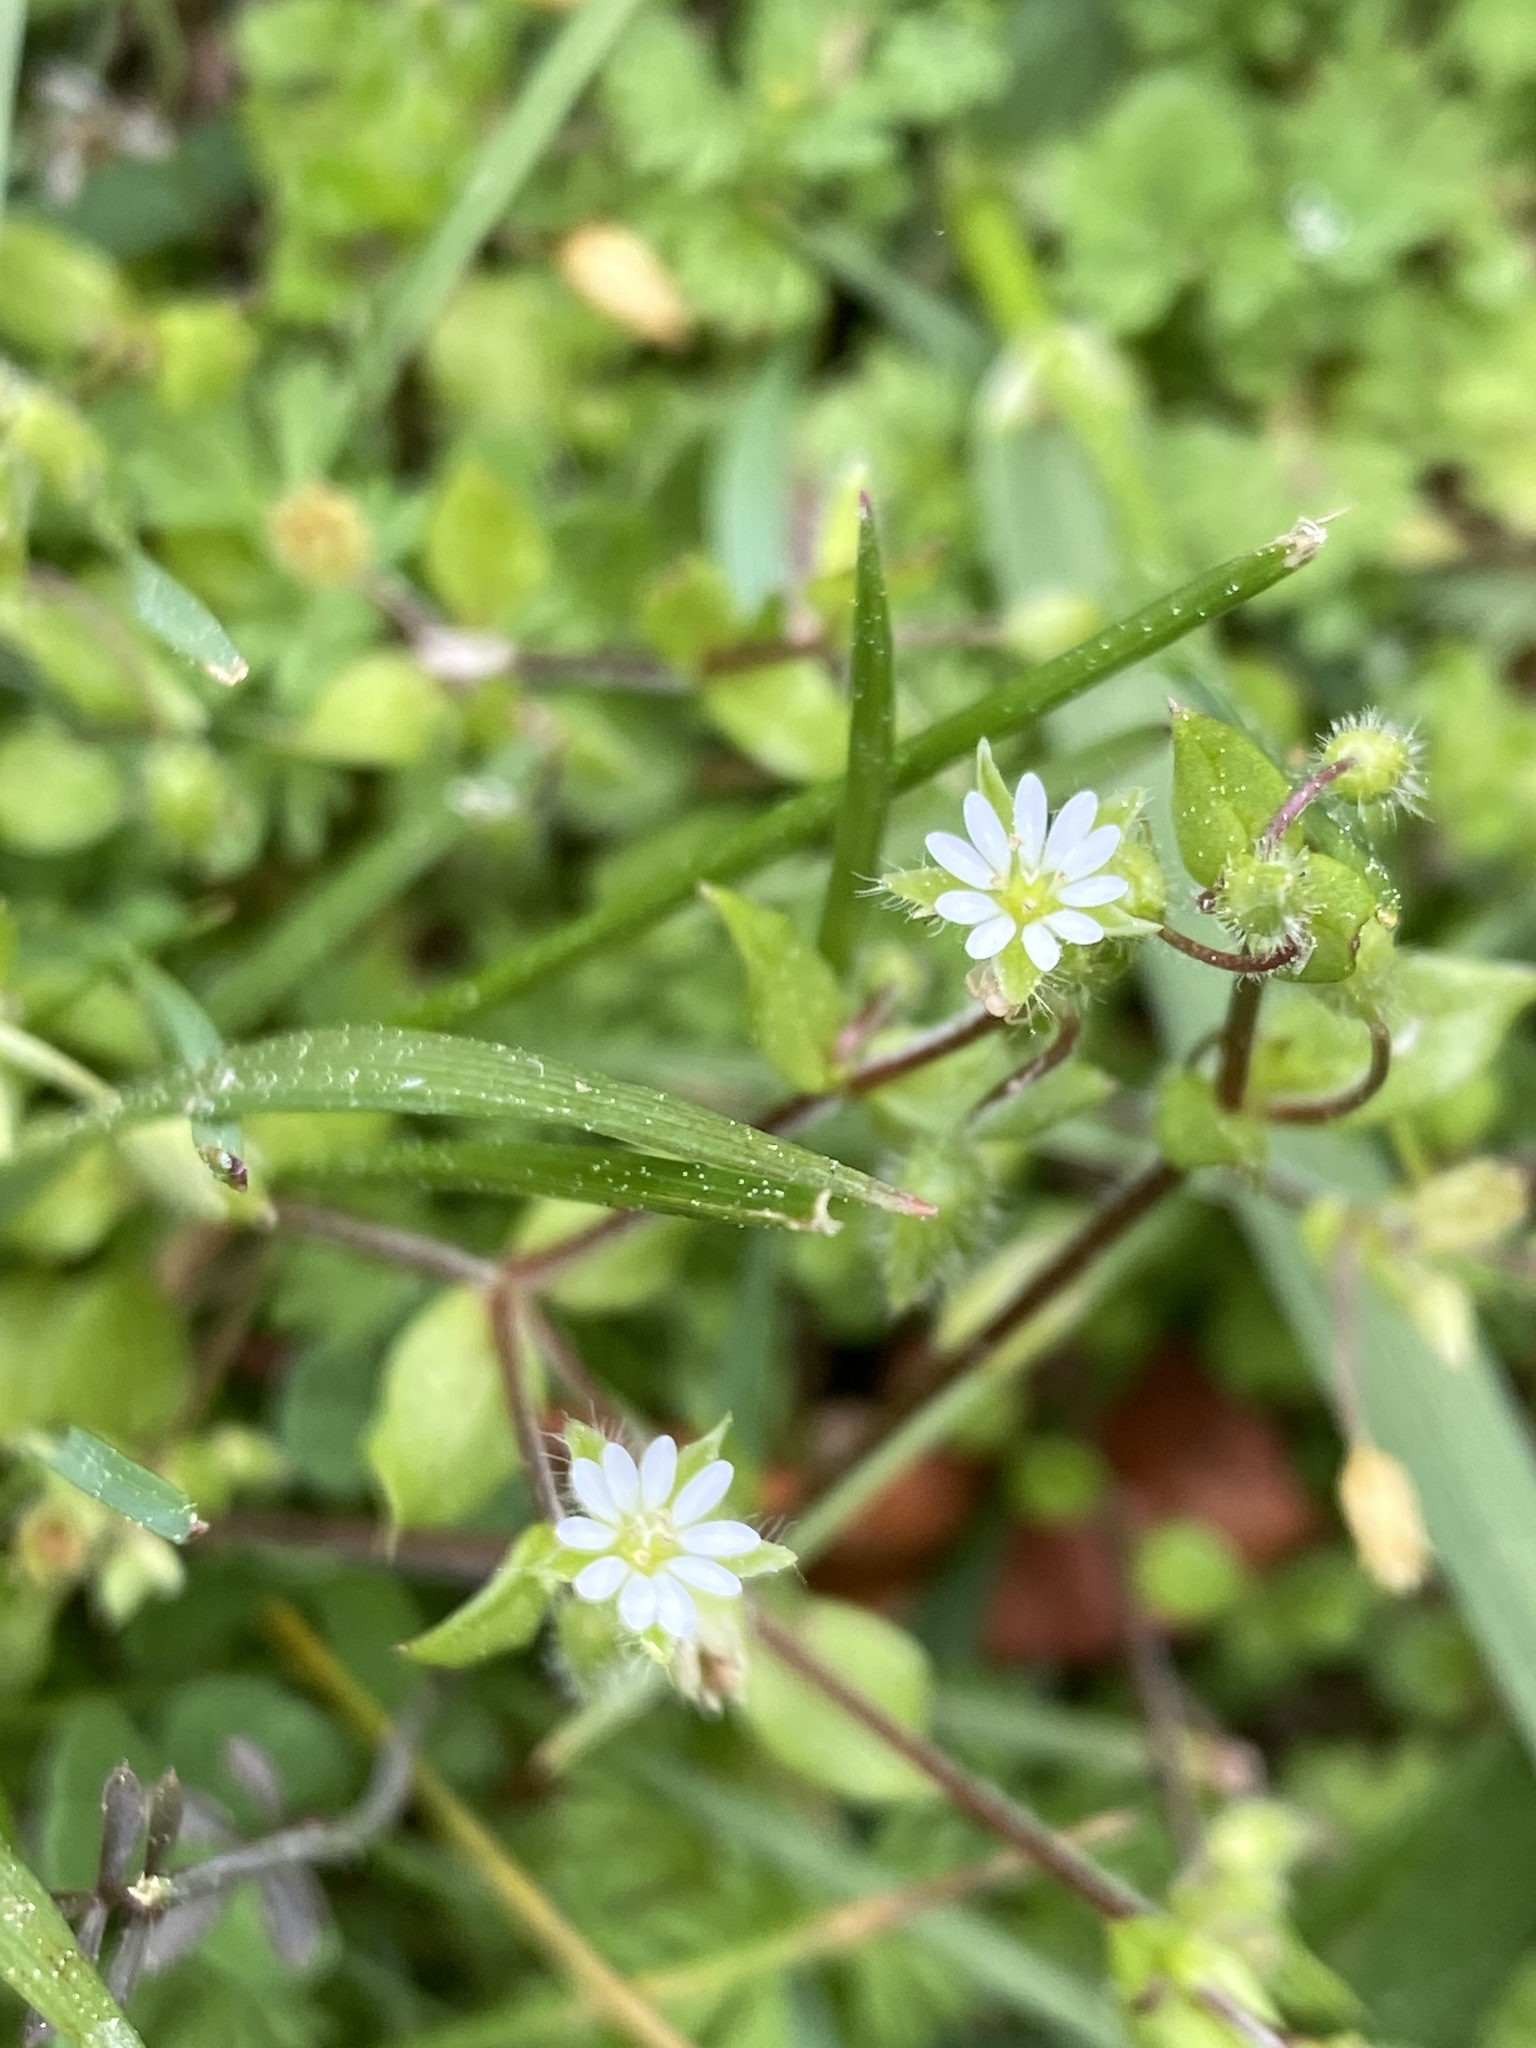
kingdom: Plantae
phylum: Tracheophyta
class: Magnoliopsida
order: Caryophyllales
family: Caryophyllaceae
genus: Stellaria
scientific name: Stellaria media
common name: Common chickweed
